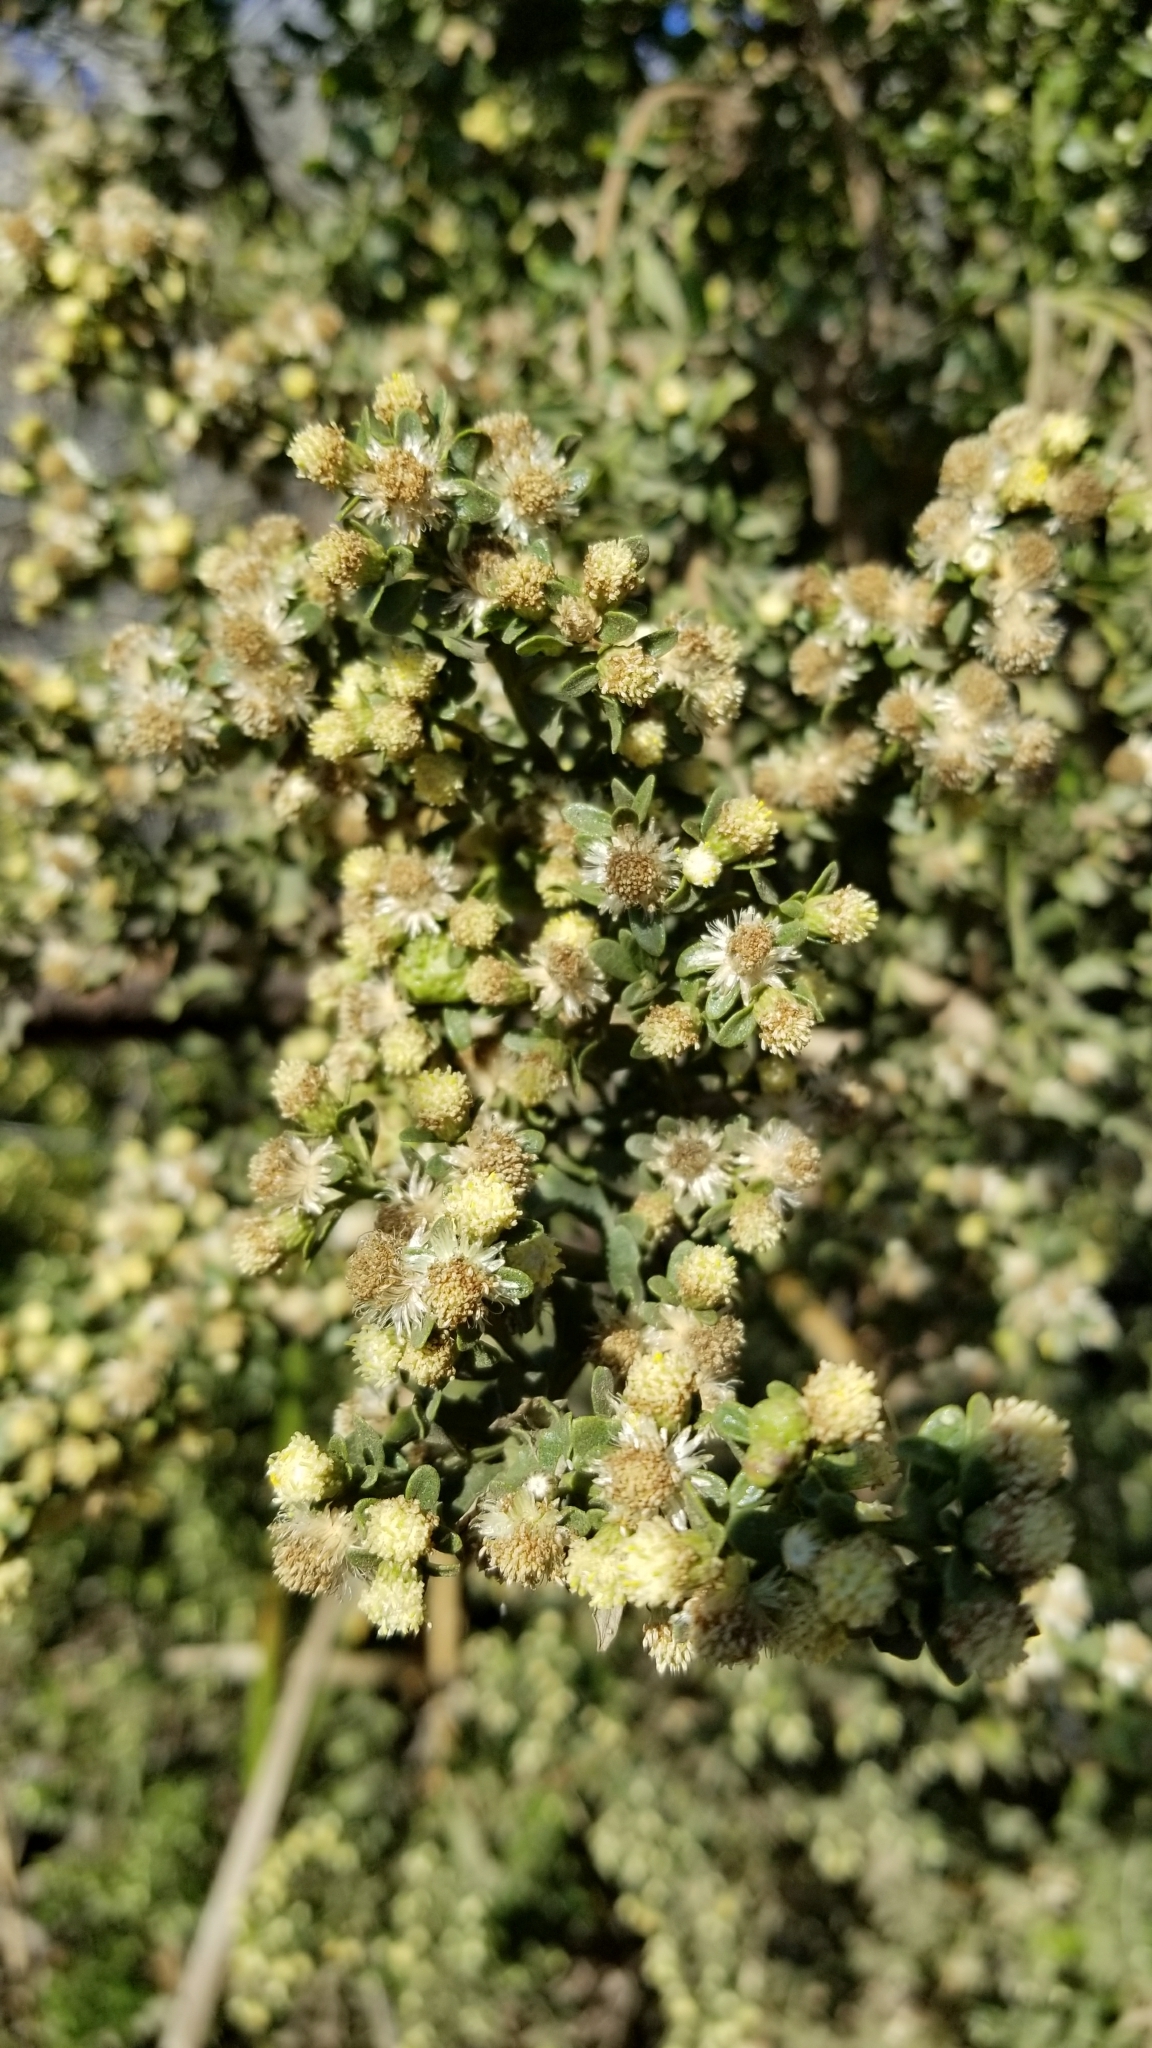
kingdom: Plantae
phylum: Tracheophyta
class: Magnoliopsida
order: Asterales
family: Asteraceae
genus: Baccharis
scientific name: Baccharis pilularis
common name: Coyotebrush
